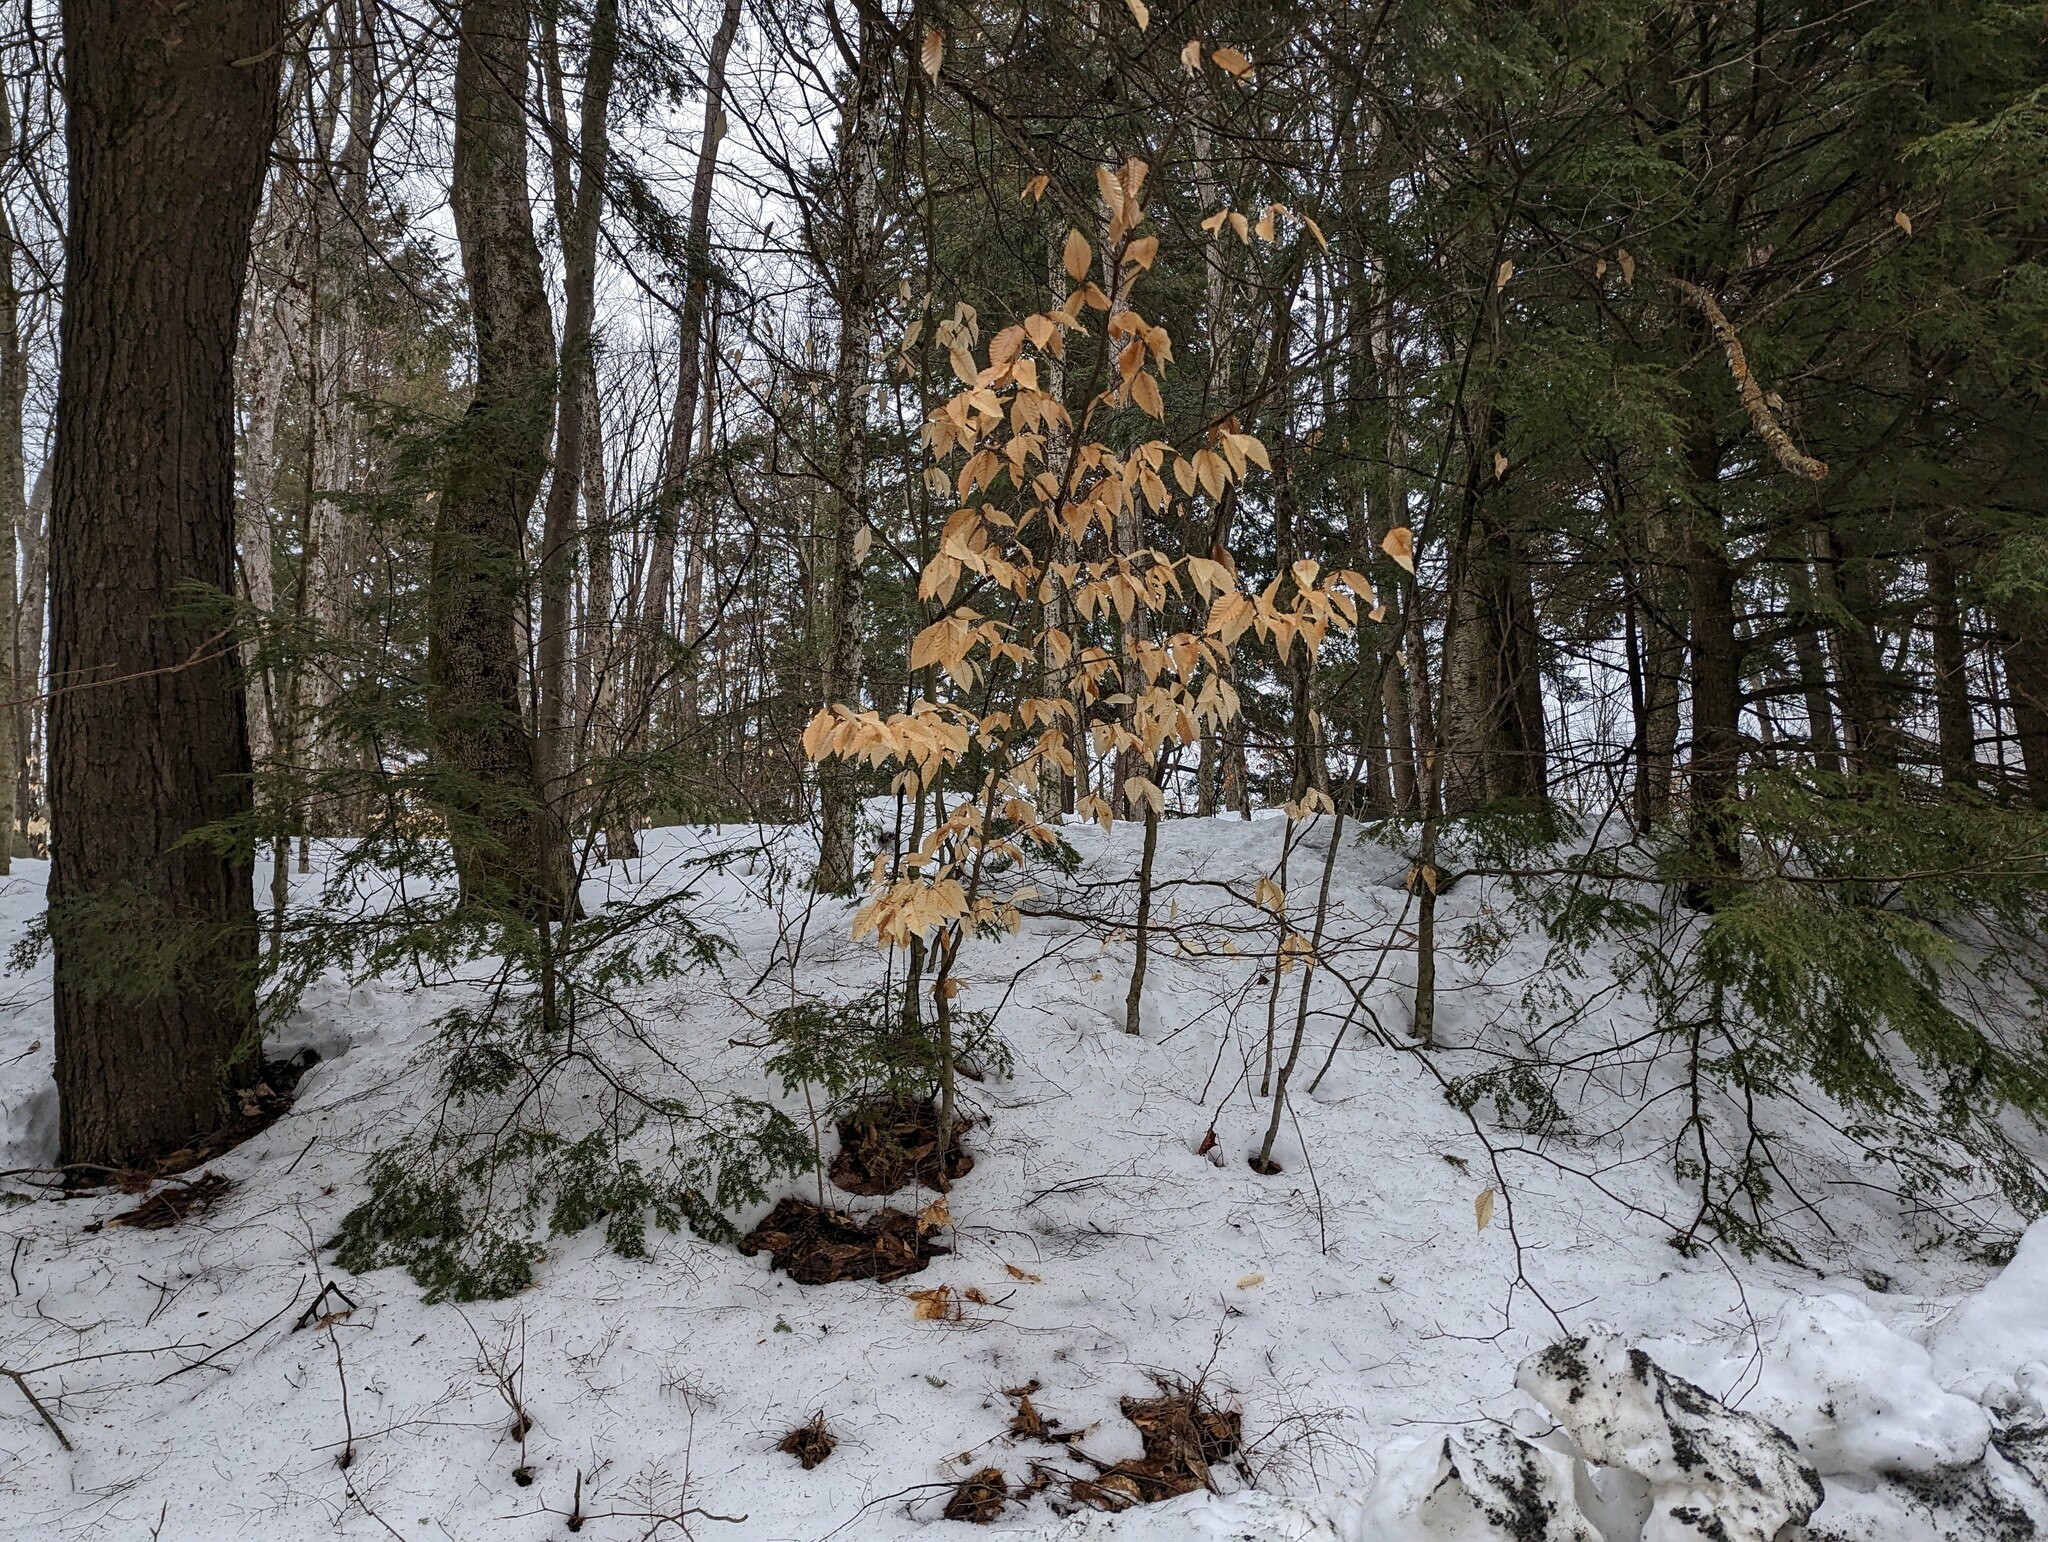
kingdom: Plantae
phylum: Tracheophyta
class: Magnoliopsida
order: Fagales
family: Fagaceae
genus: Fagus
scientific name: Fagus grandifolia
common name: American beech
